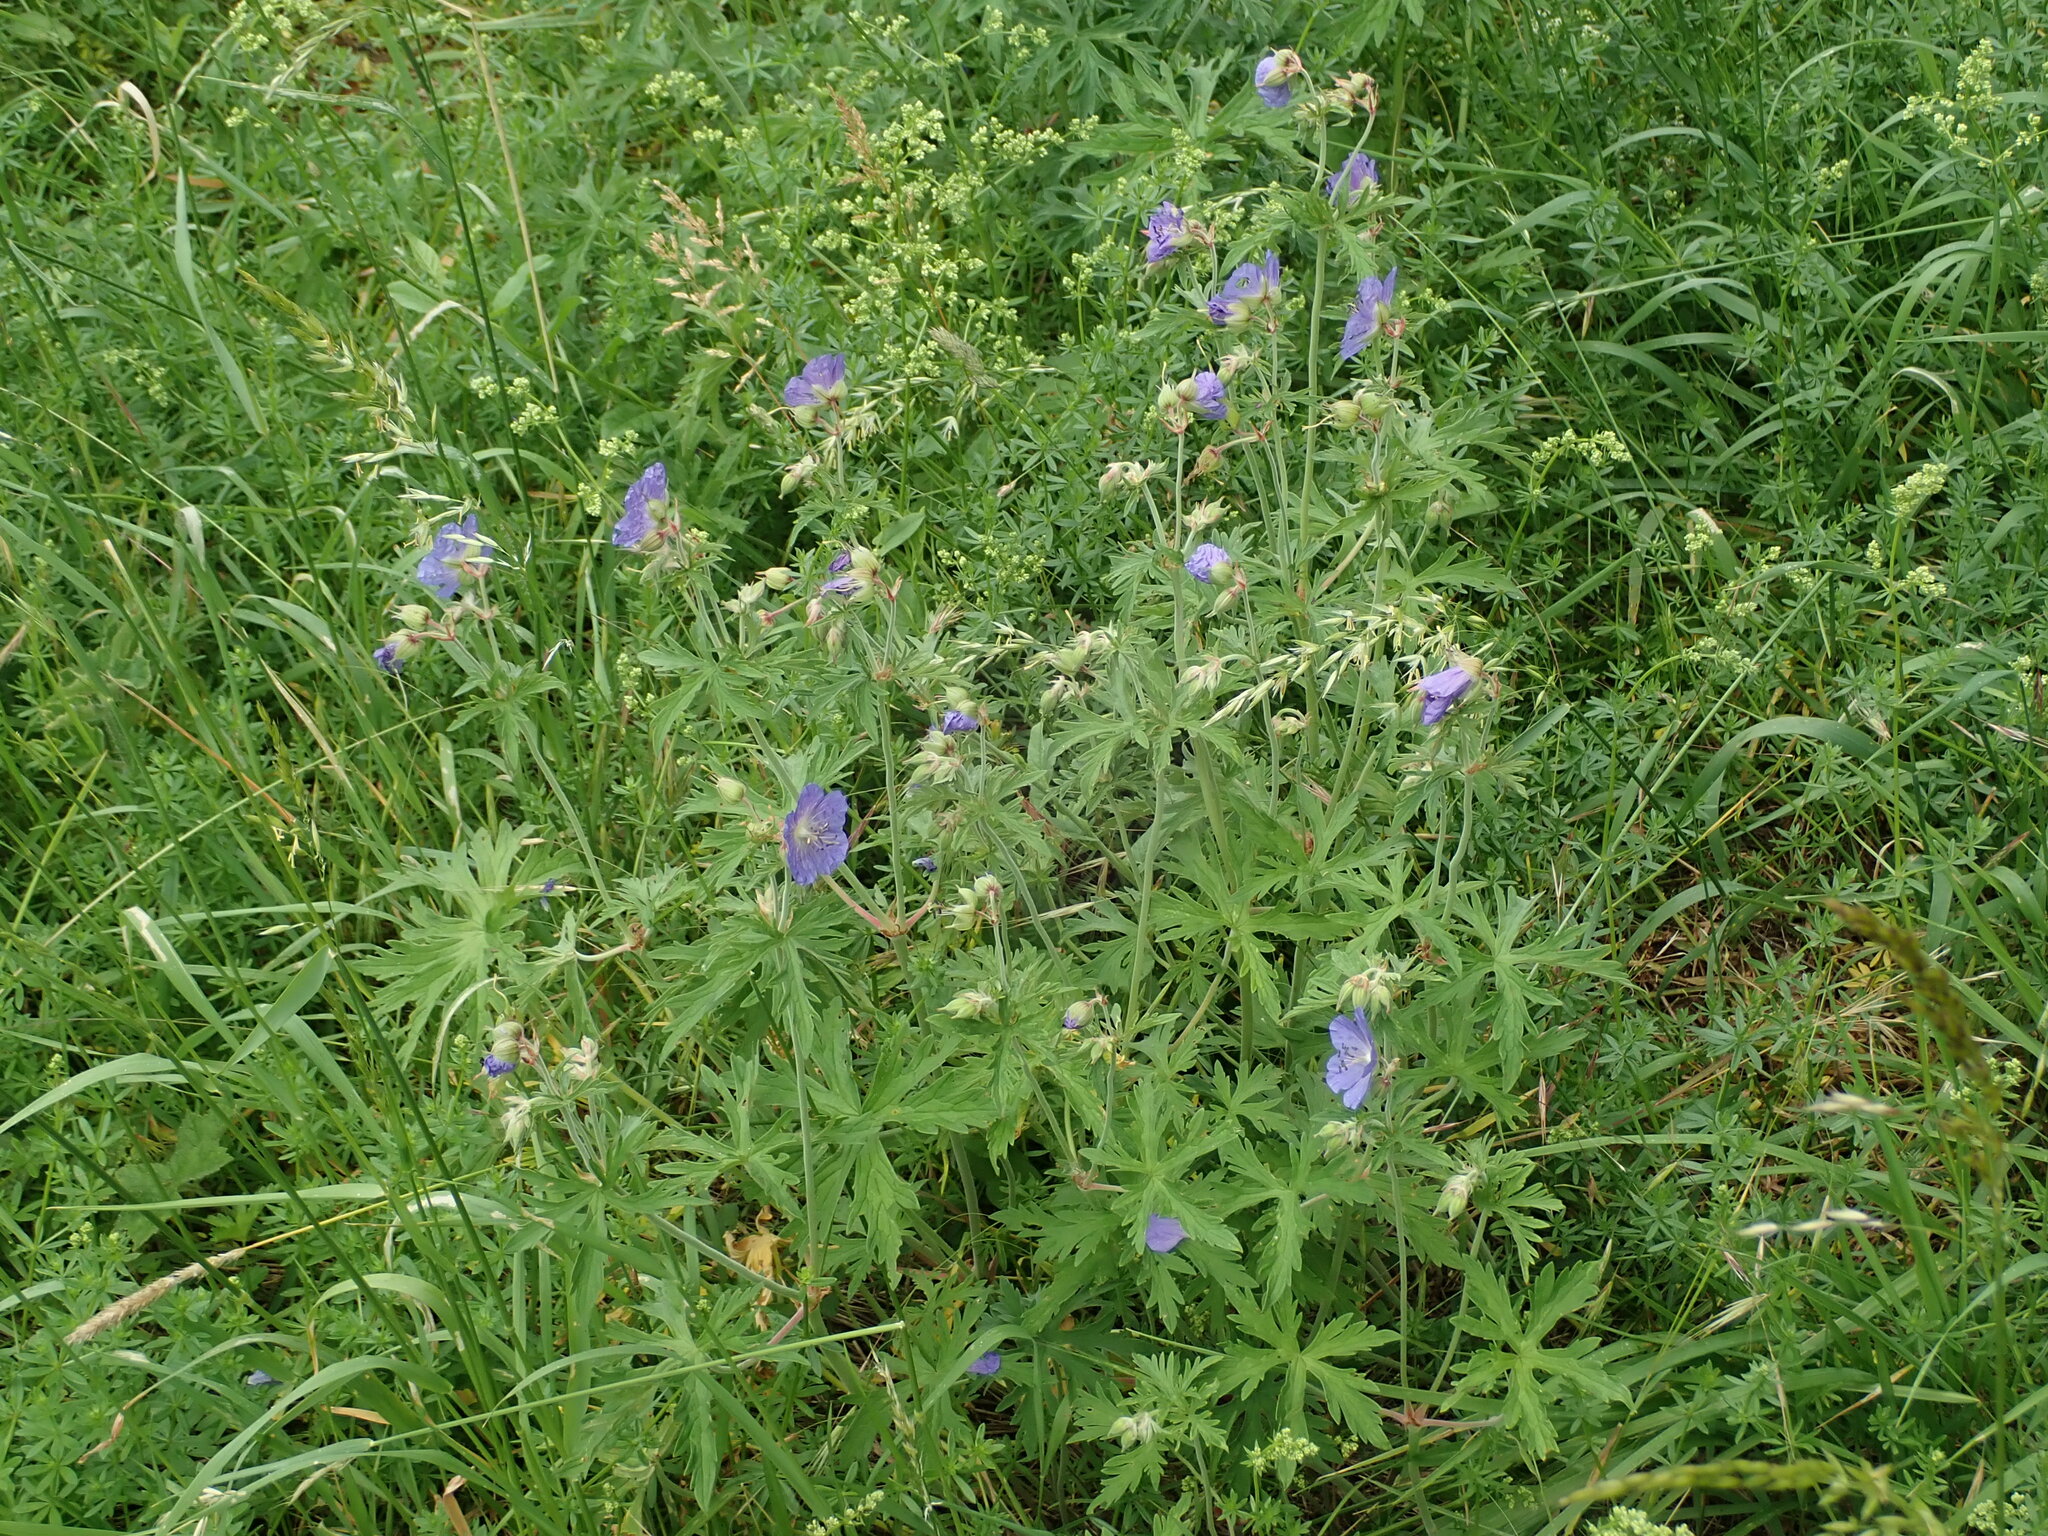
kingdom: Plantae
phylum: Tracheophyta
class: Magnoliopsida
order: Geraniales
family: Geraniaceae
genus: Geranium
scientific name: Geranium pratense
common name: Meadow crane's-bill
